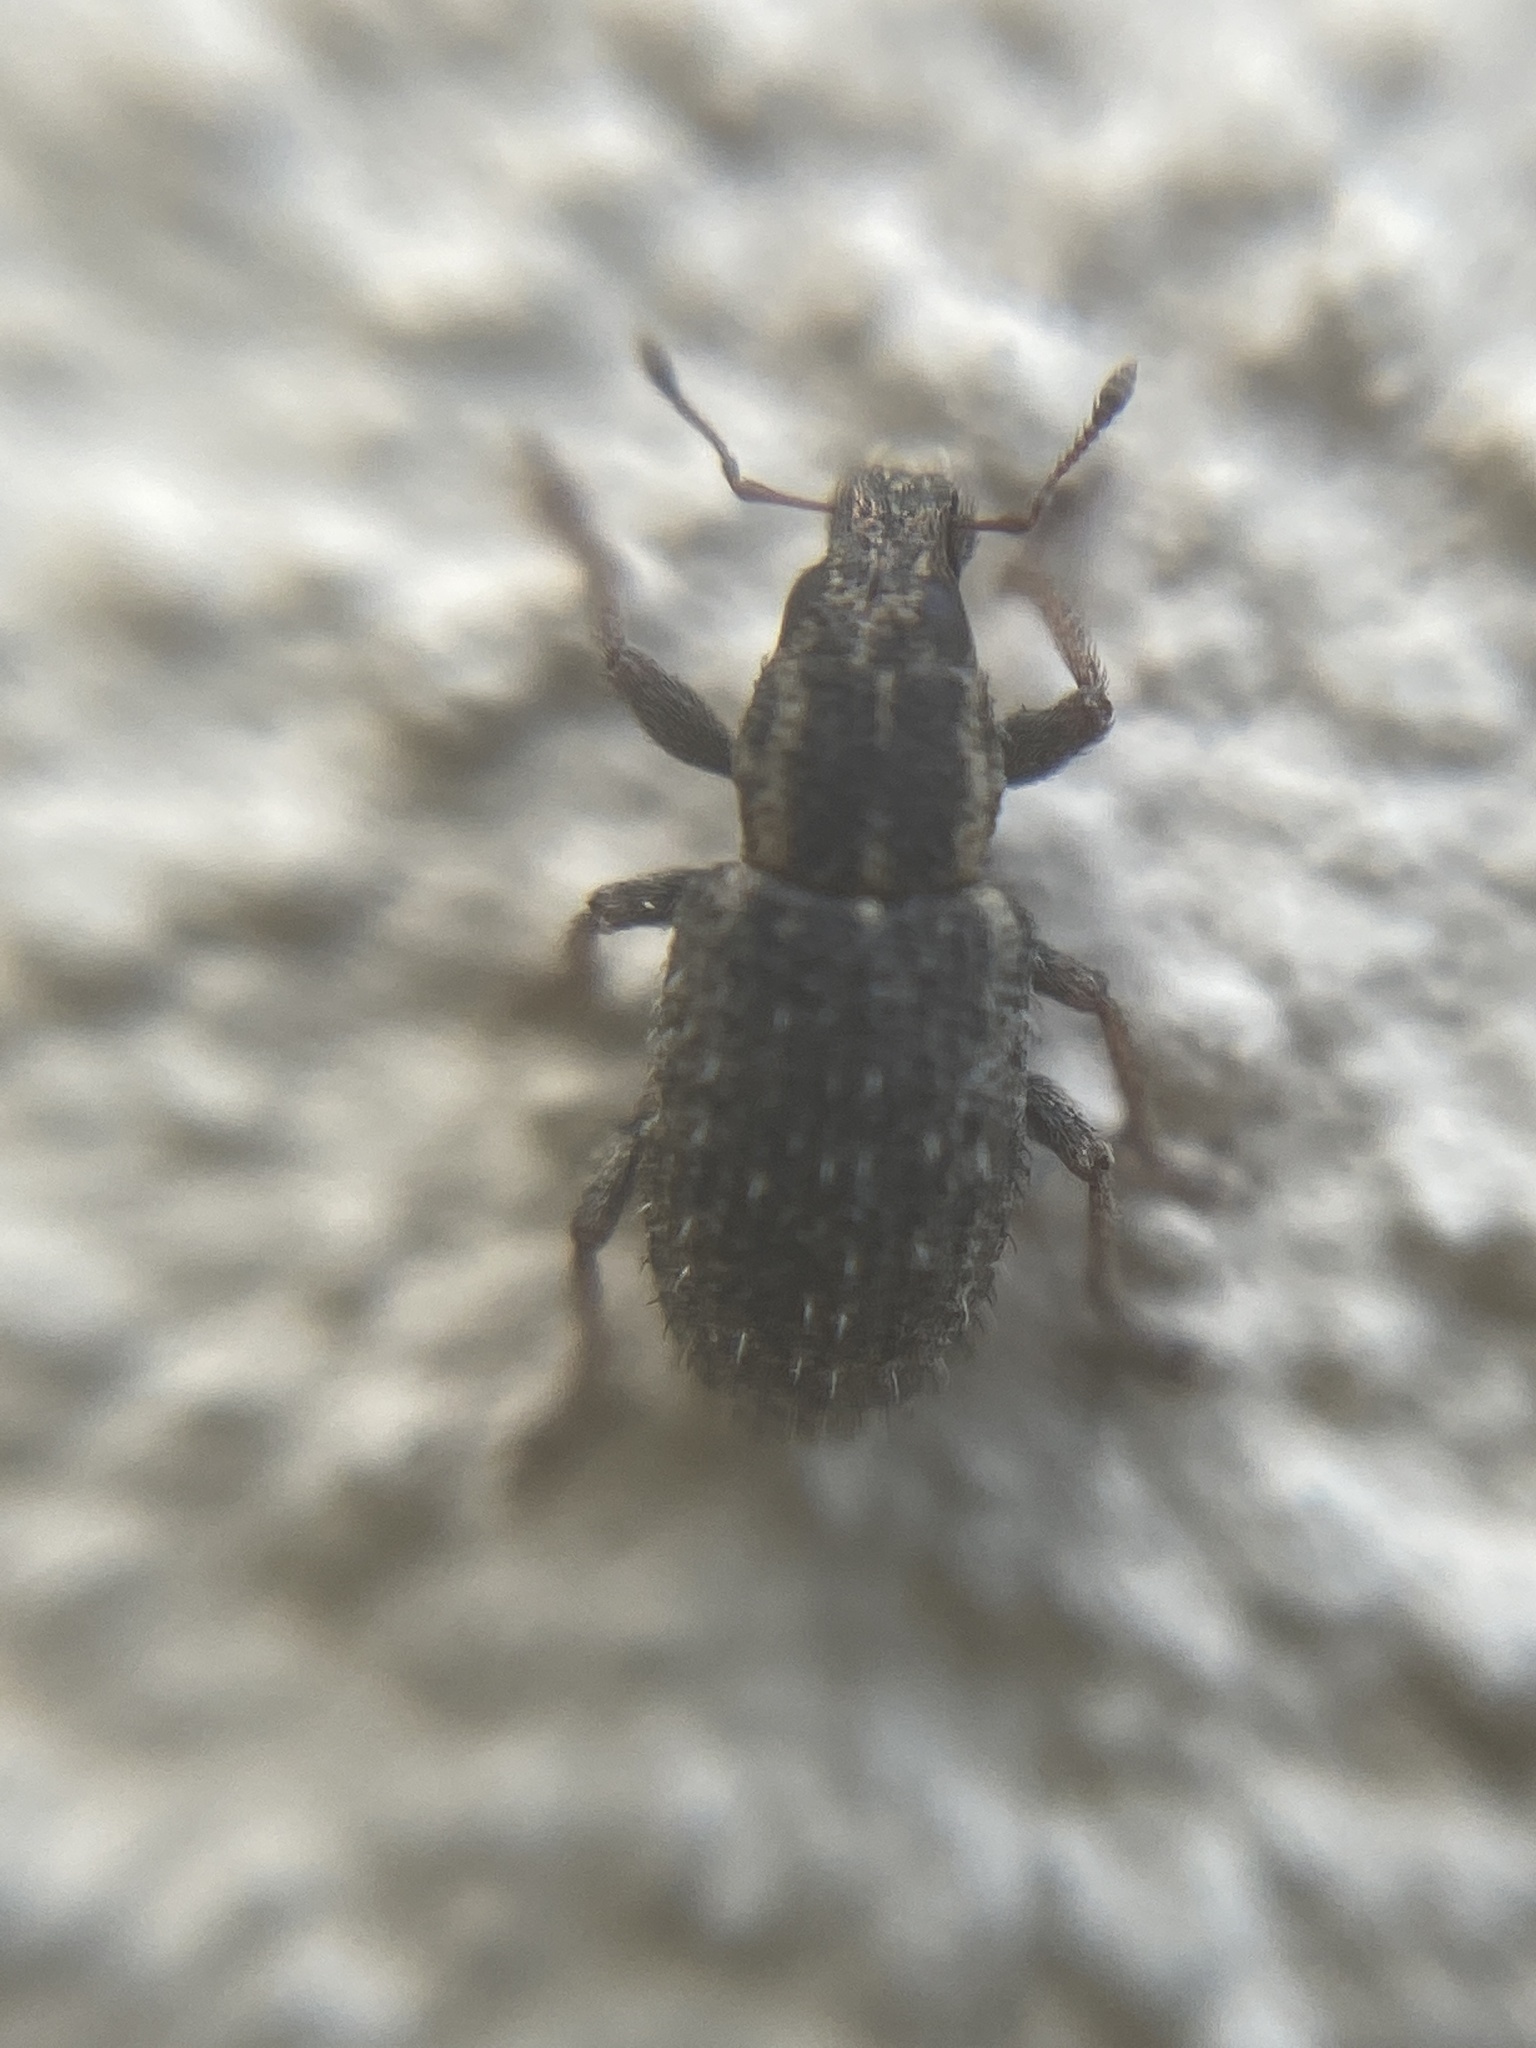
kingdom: Animalia
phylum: Arthropoda
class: Insecta
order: Coleoptera
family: Curculionidae
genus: Sitona
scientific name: Sitona hispidulus
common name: Clover weevil
